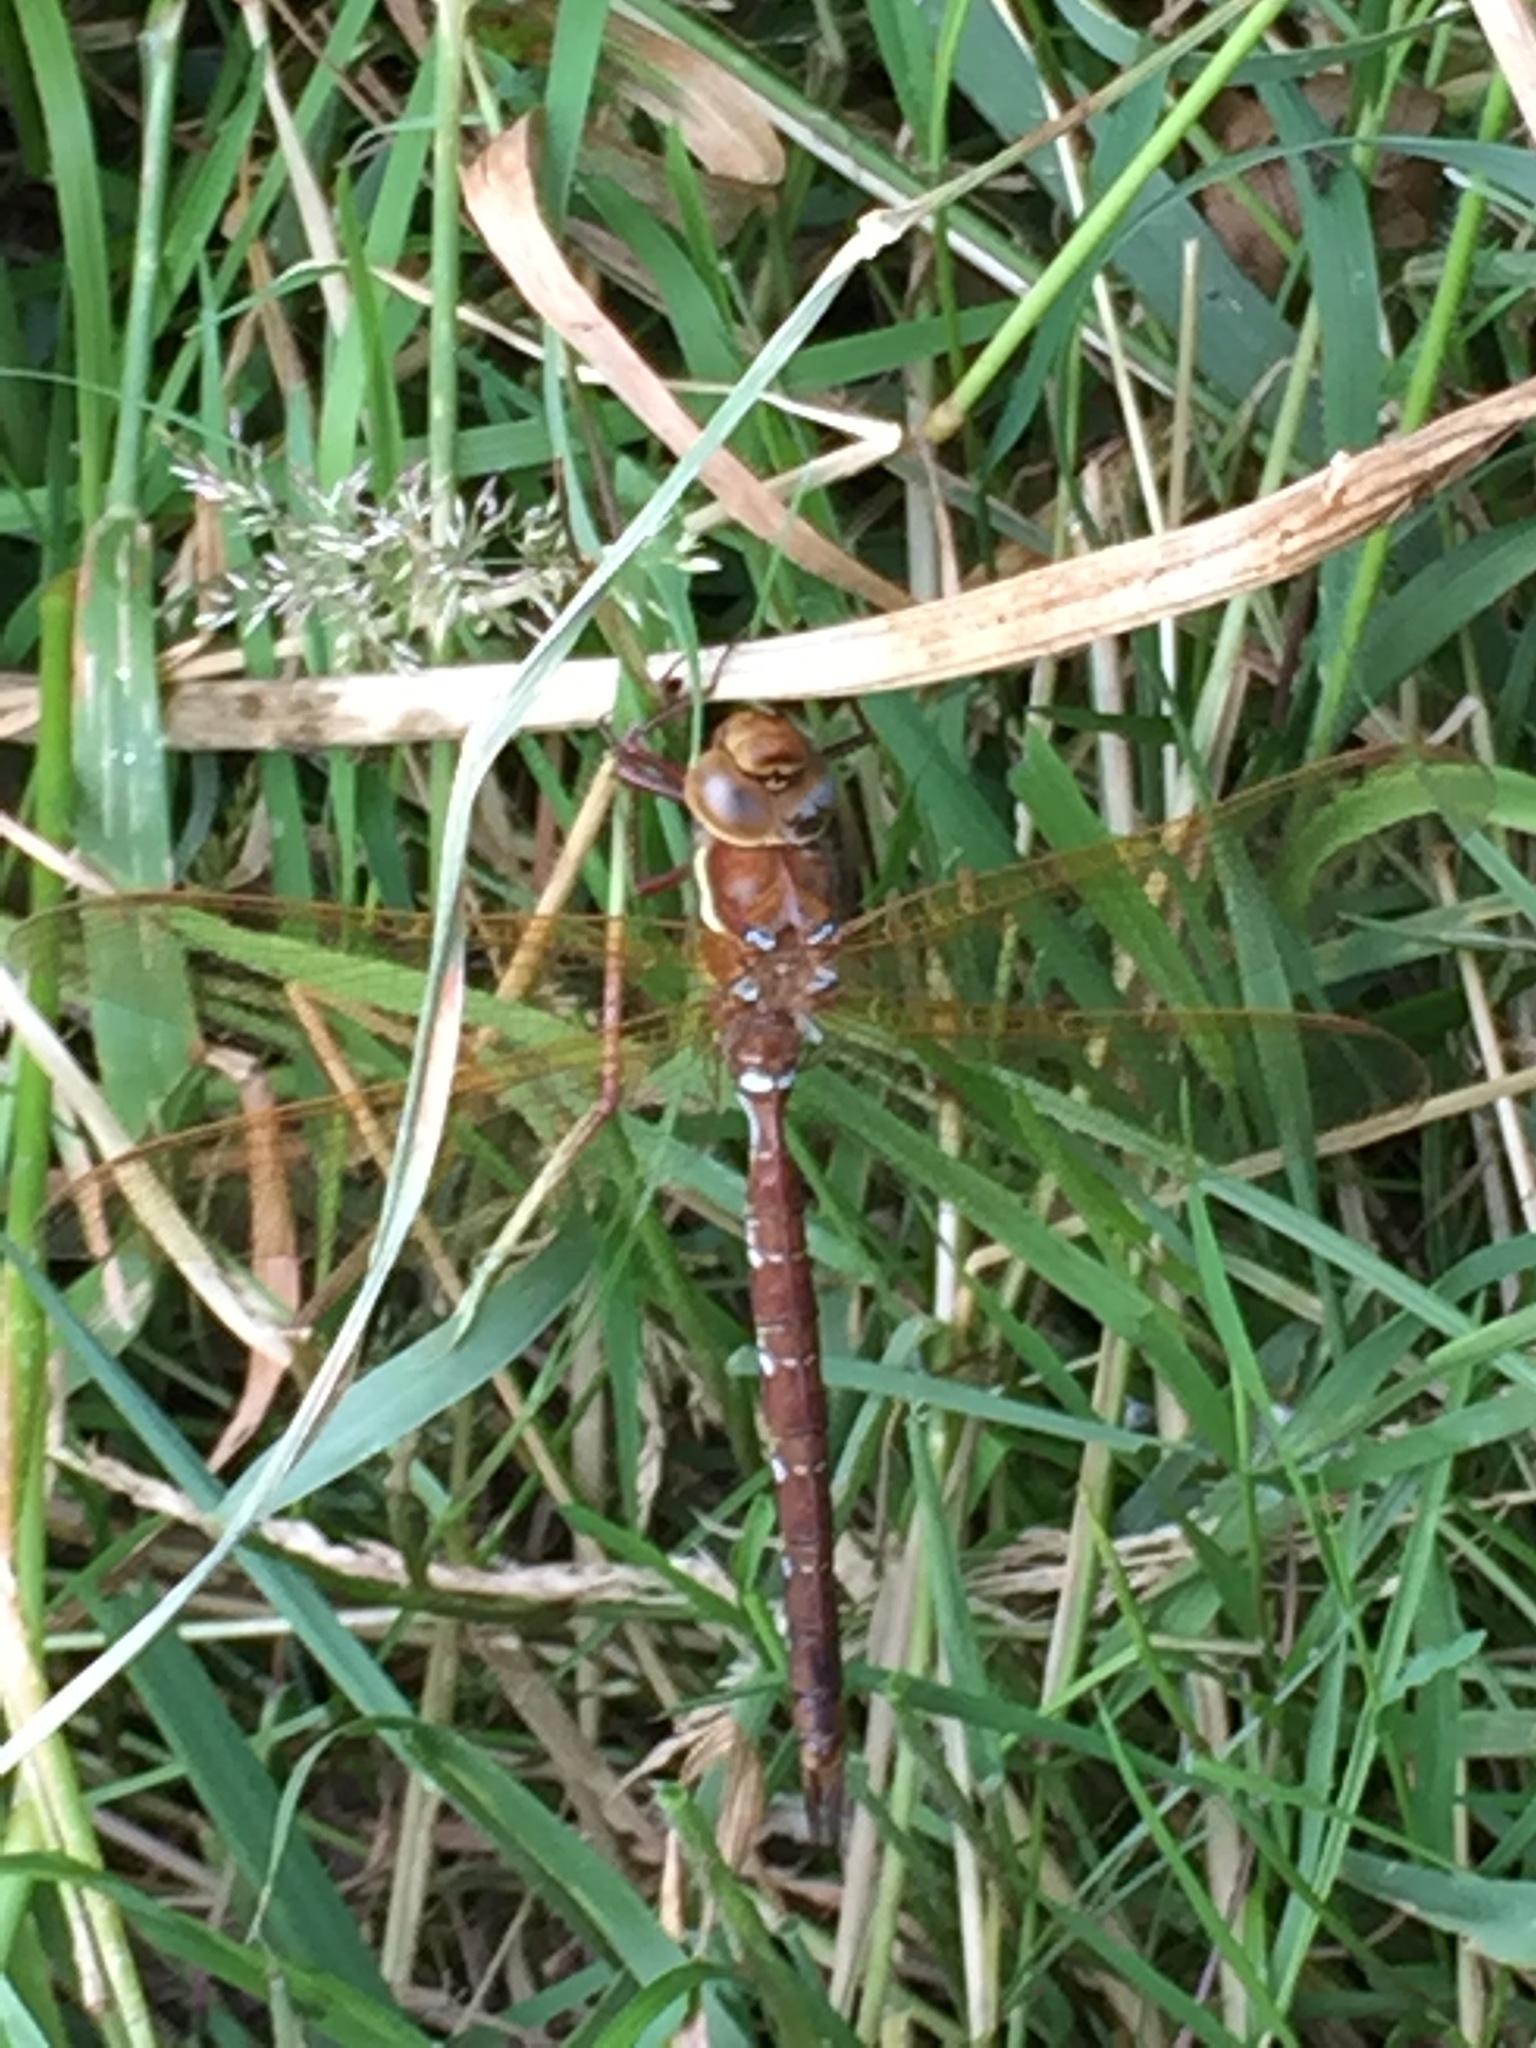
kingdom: Animalia
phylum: Arthropoda
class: Insecta
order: Odonata
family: Aeshnidae
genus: Aeshna
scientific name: Aeshna grandis
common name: Brown hawker
